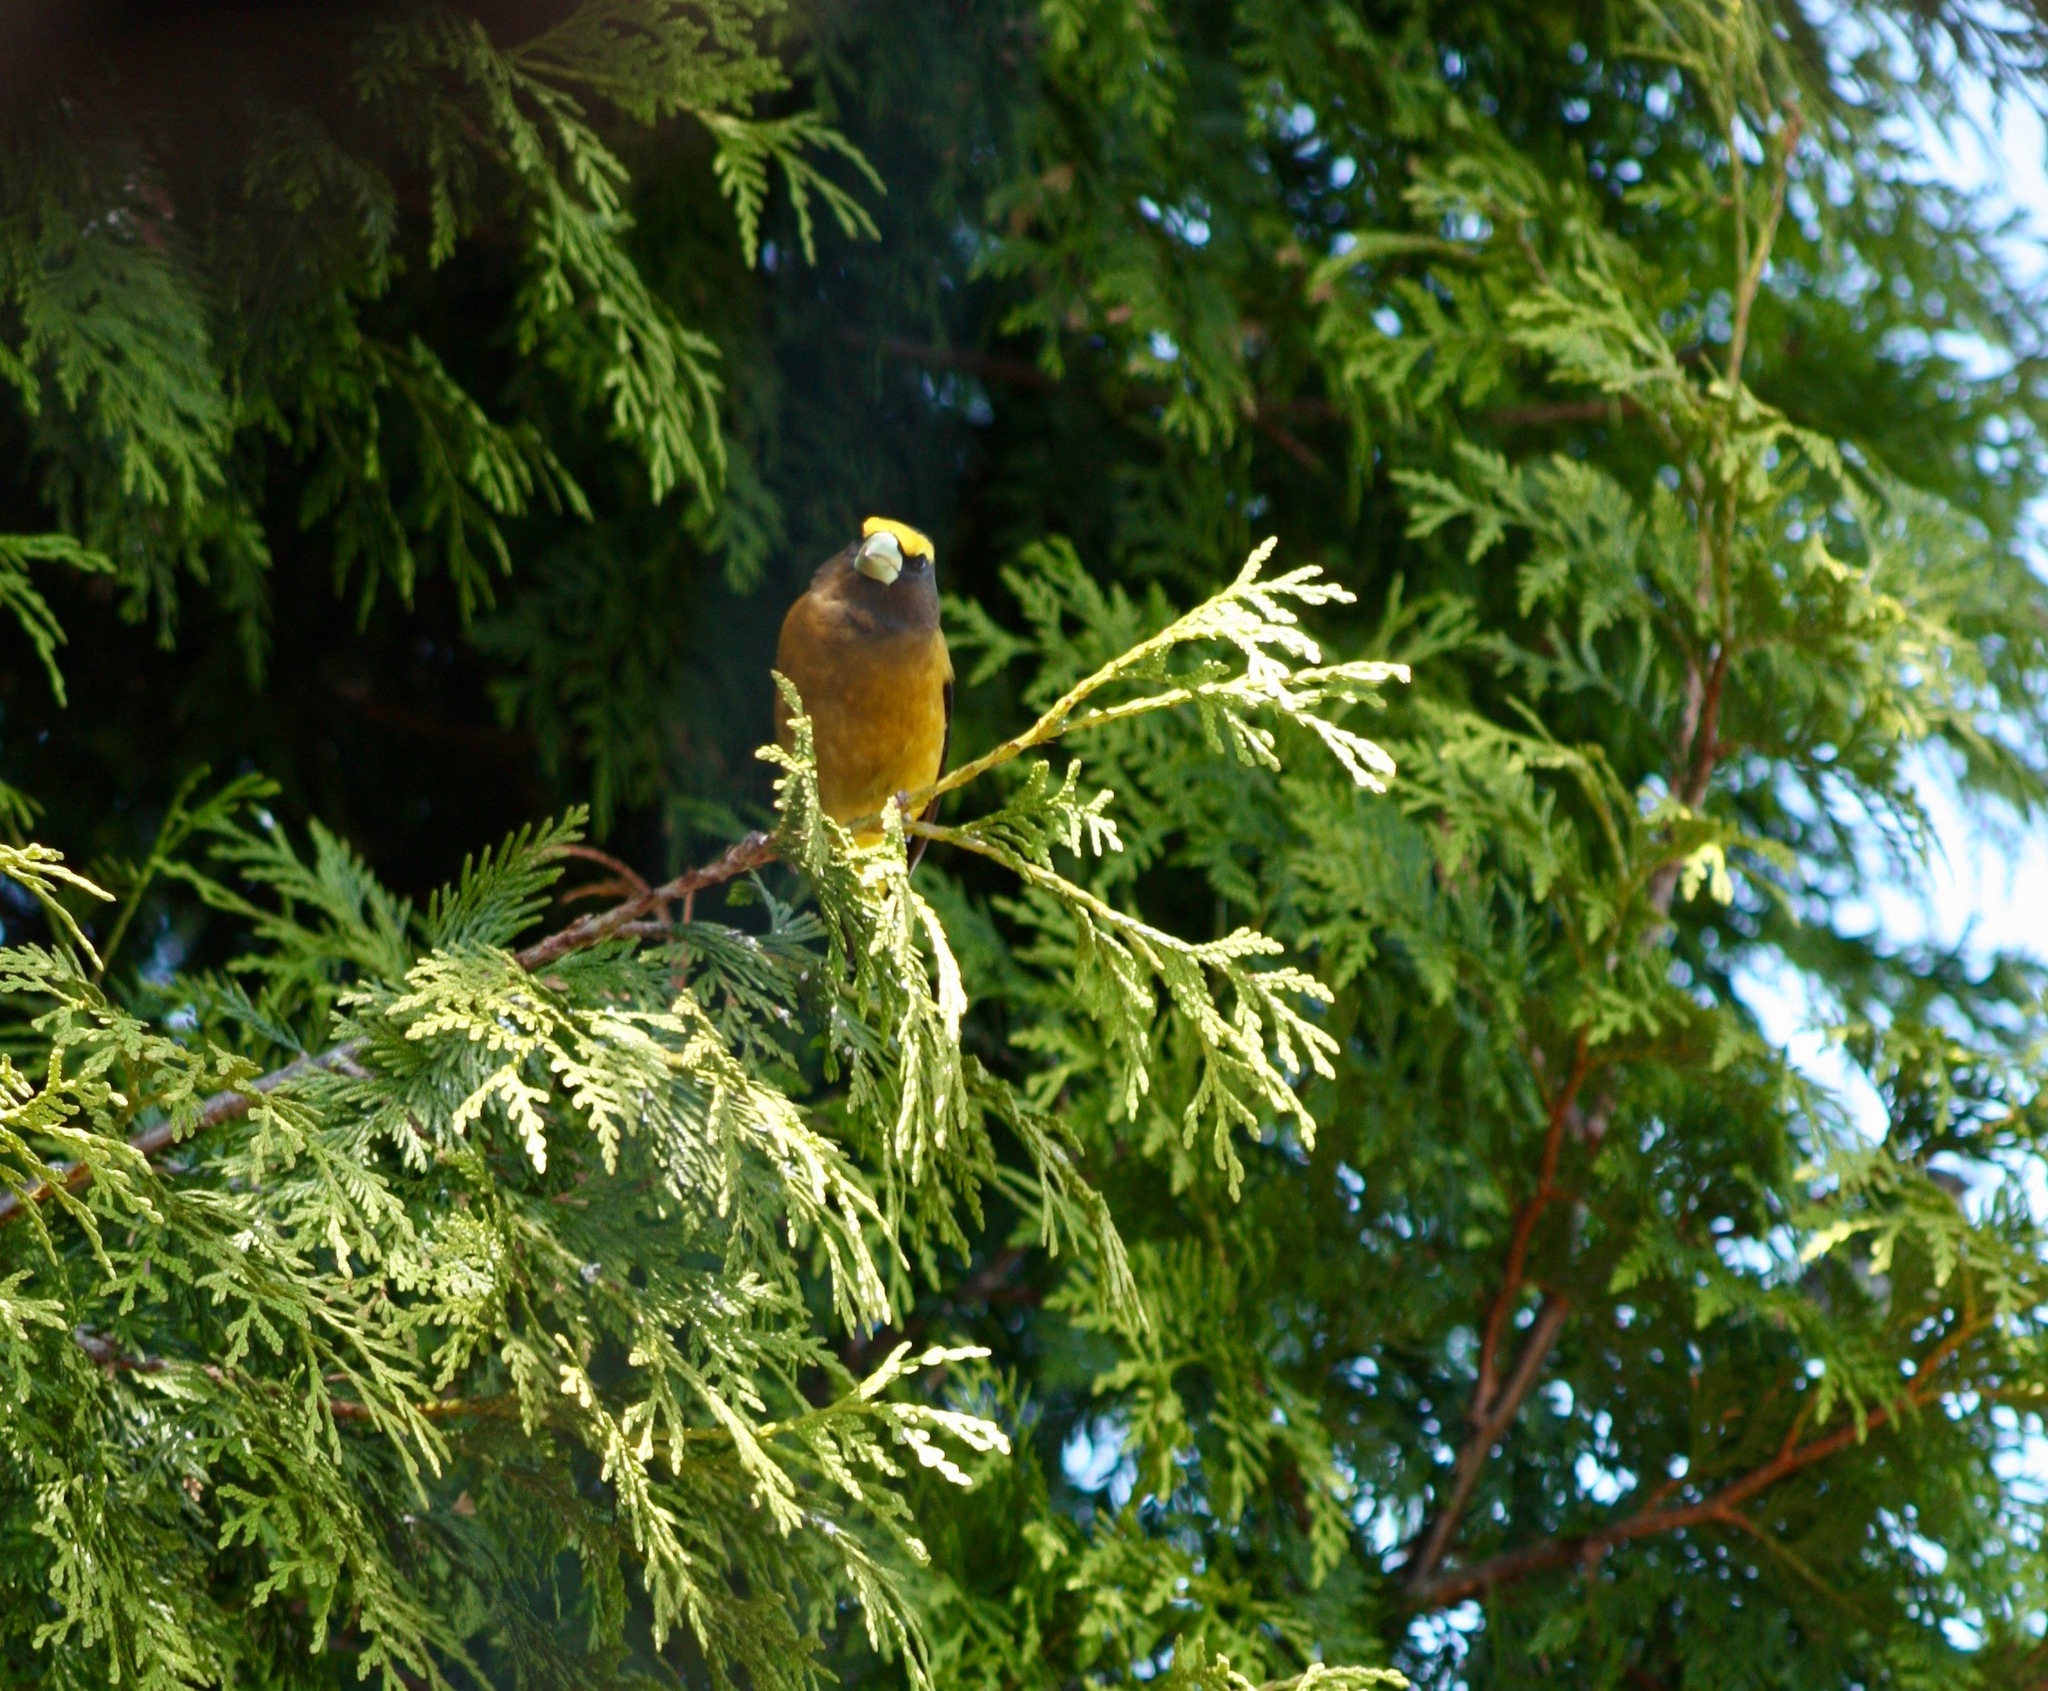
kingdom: Animalia
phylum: Chordata
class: Aves
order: Passeriformes
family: Fringillidae
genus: Hesperiphona
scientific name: Hesperiphona vespertina
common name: Evening grosbeak
